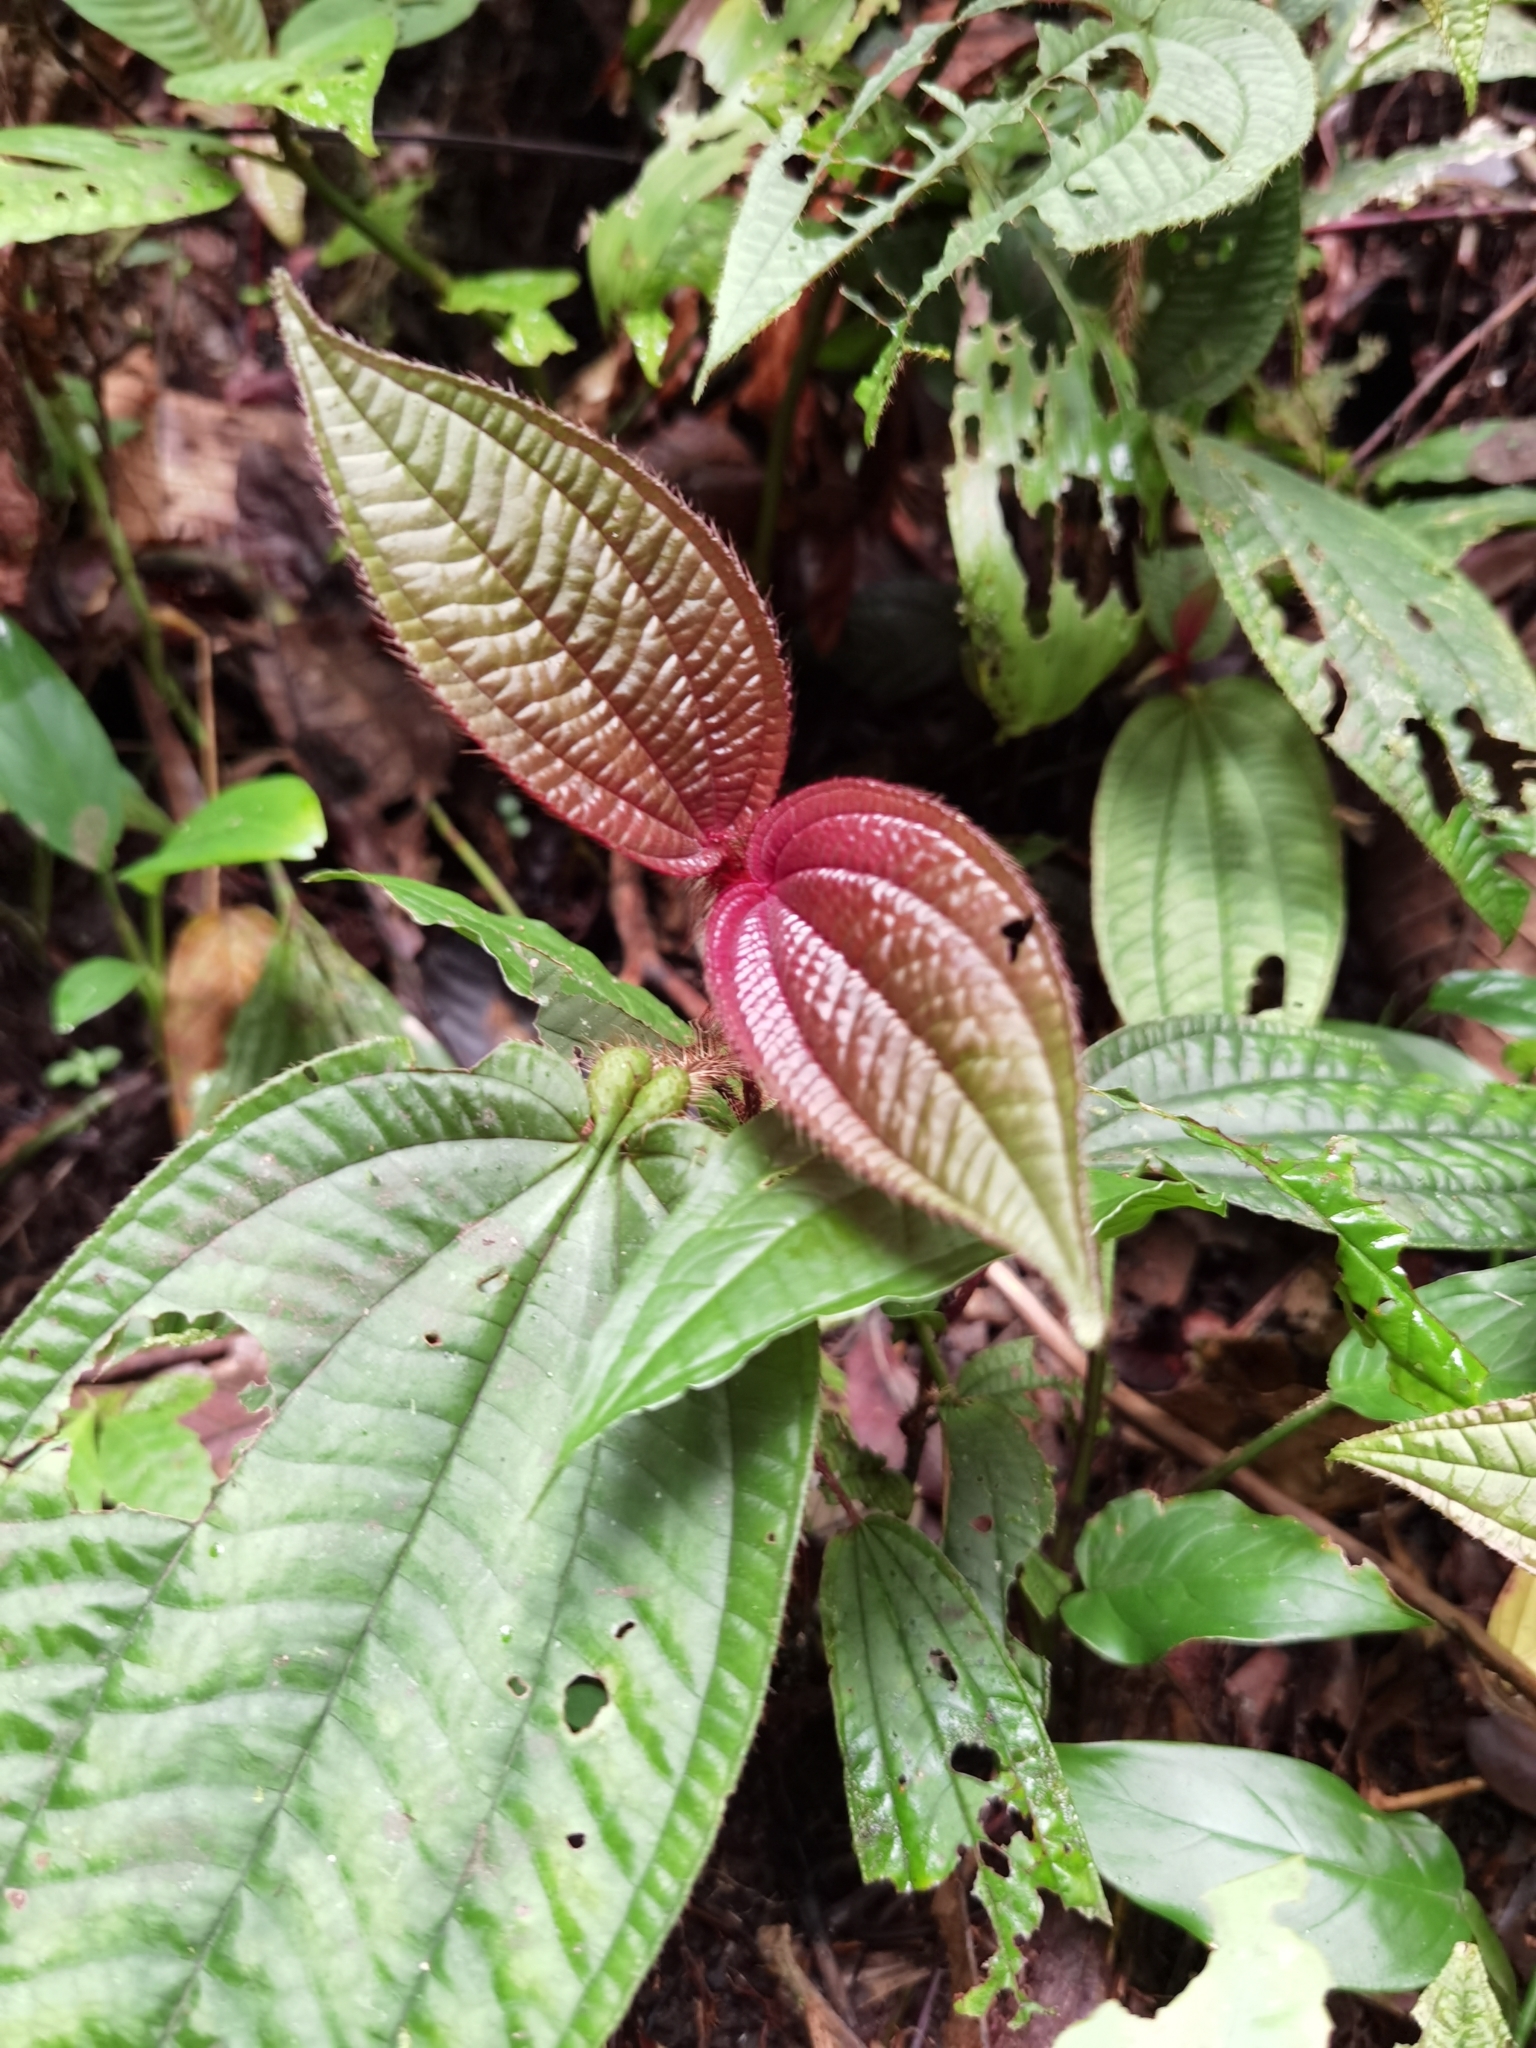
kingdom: Plantae
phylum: Tracheophyta
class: Magnoliopsida
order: Myrtales
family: Melastomataceae
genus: Miconia
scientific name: Miconia formicosetosa
